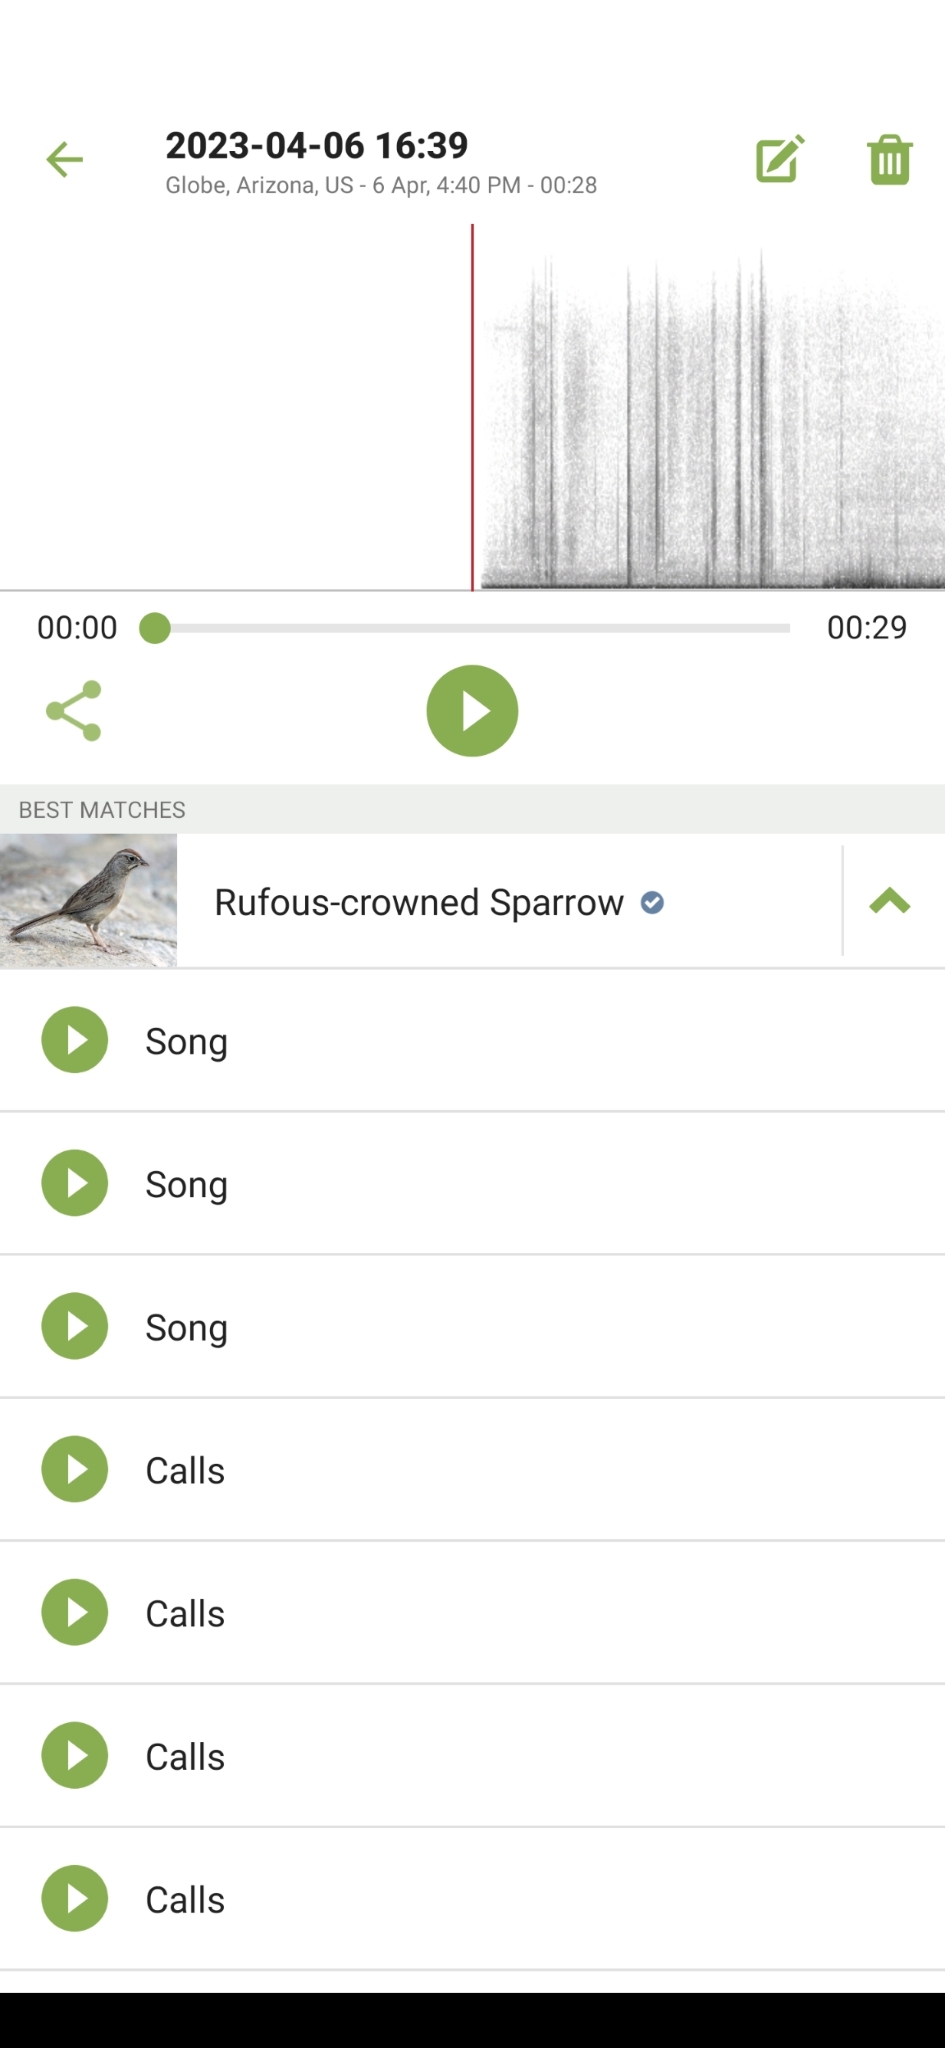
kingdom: Animalia
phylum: Chordata
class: Aves
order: Passeriformes
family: Passerellidae
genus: Aimophila
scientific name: Aimophila ruficeps
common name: Rufous-crowned sparrow
